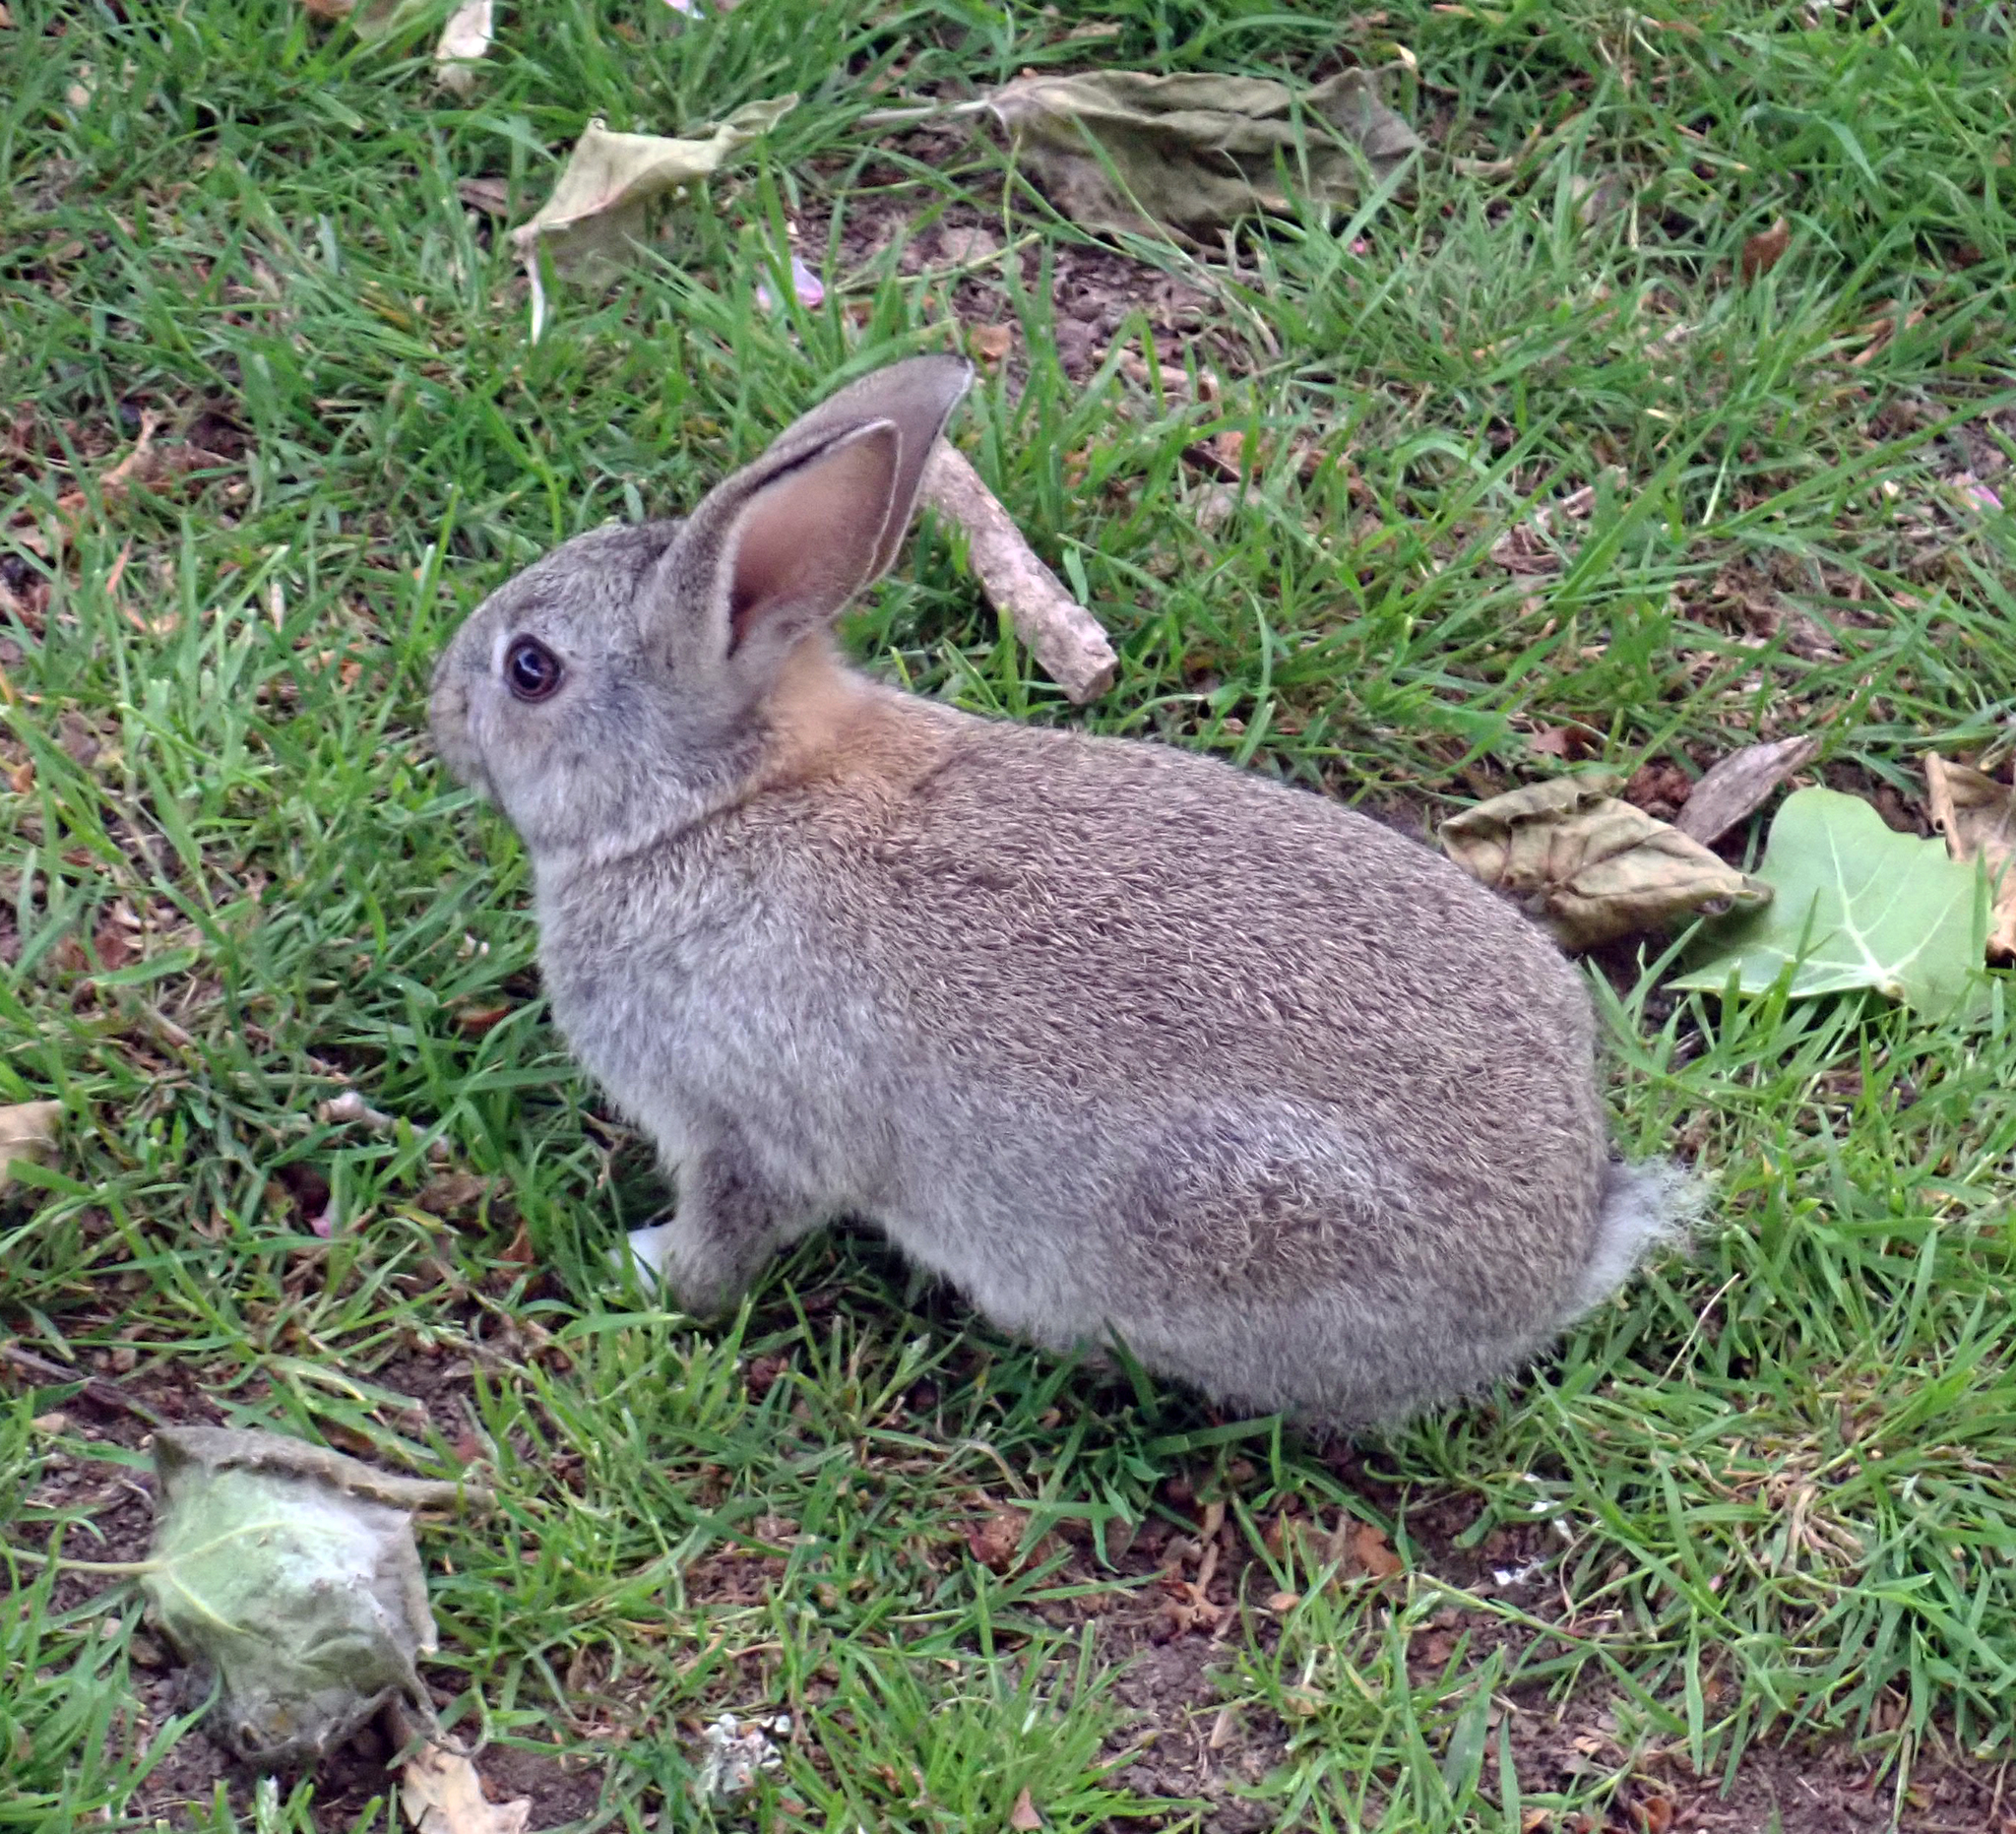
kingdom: Animalia
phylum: Chordata
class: Mammalia
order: Lagomorpha
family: Leporidae
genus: Oryctolagus
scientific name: Oryctolagus cuniculus
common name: European rabbit
